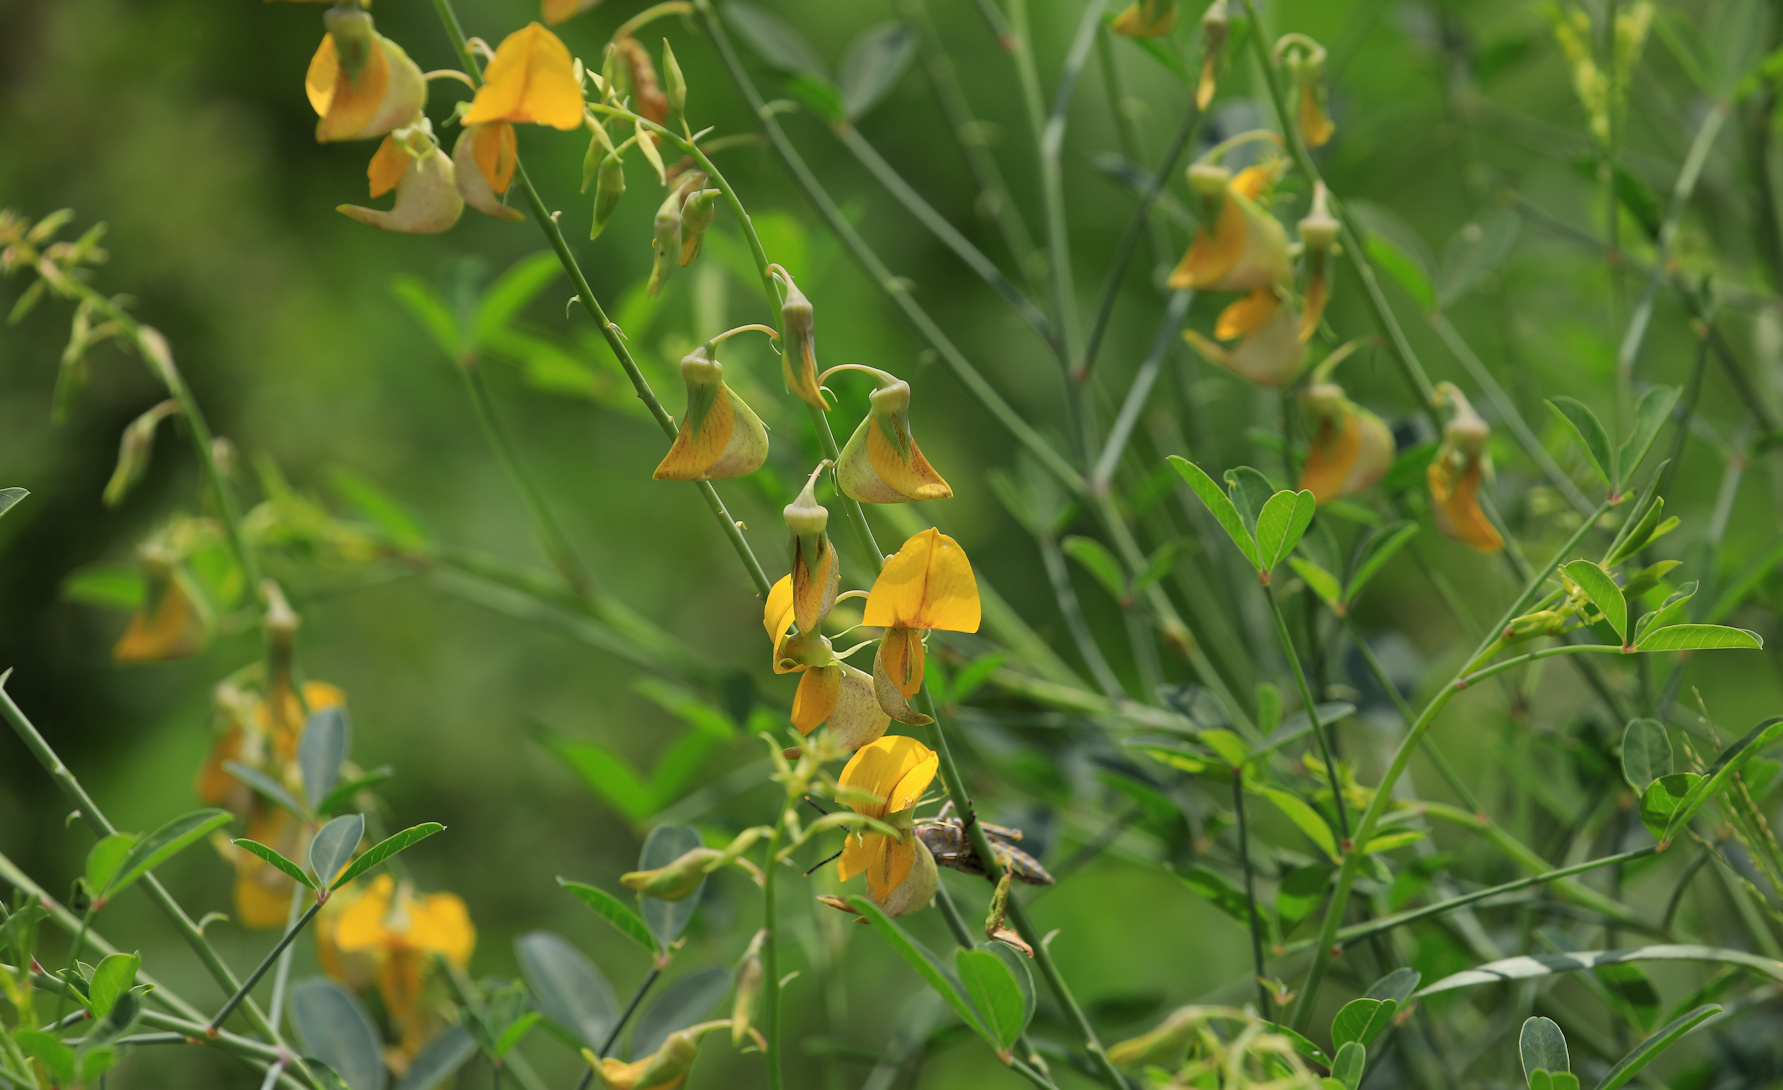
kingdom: Plantae
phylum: Tracheophyta
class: Magnoliopsida
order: Fabales
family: Fabaceae
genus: Crotalaria
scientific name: Crotalaria laburnifolia
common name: Birdflower
